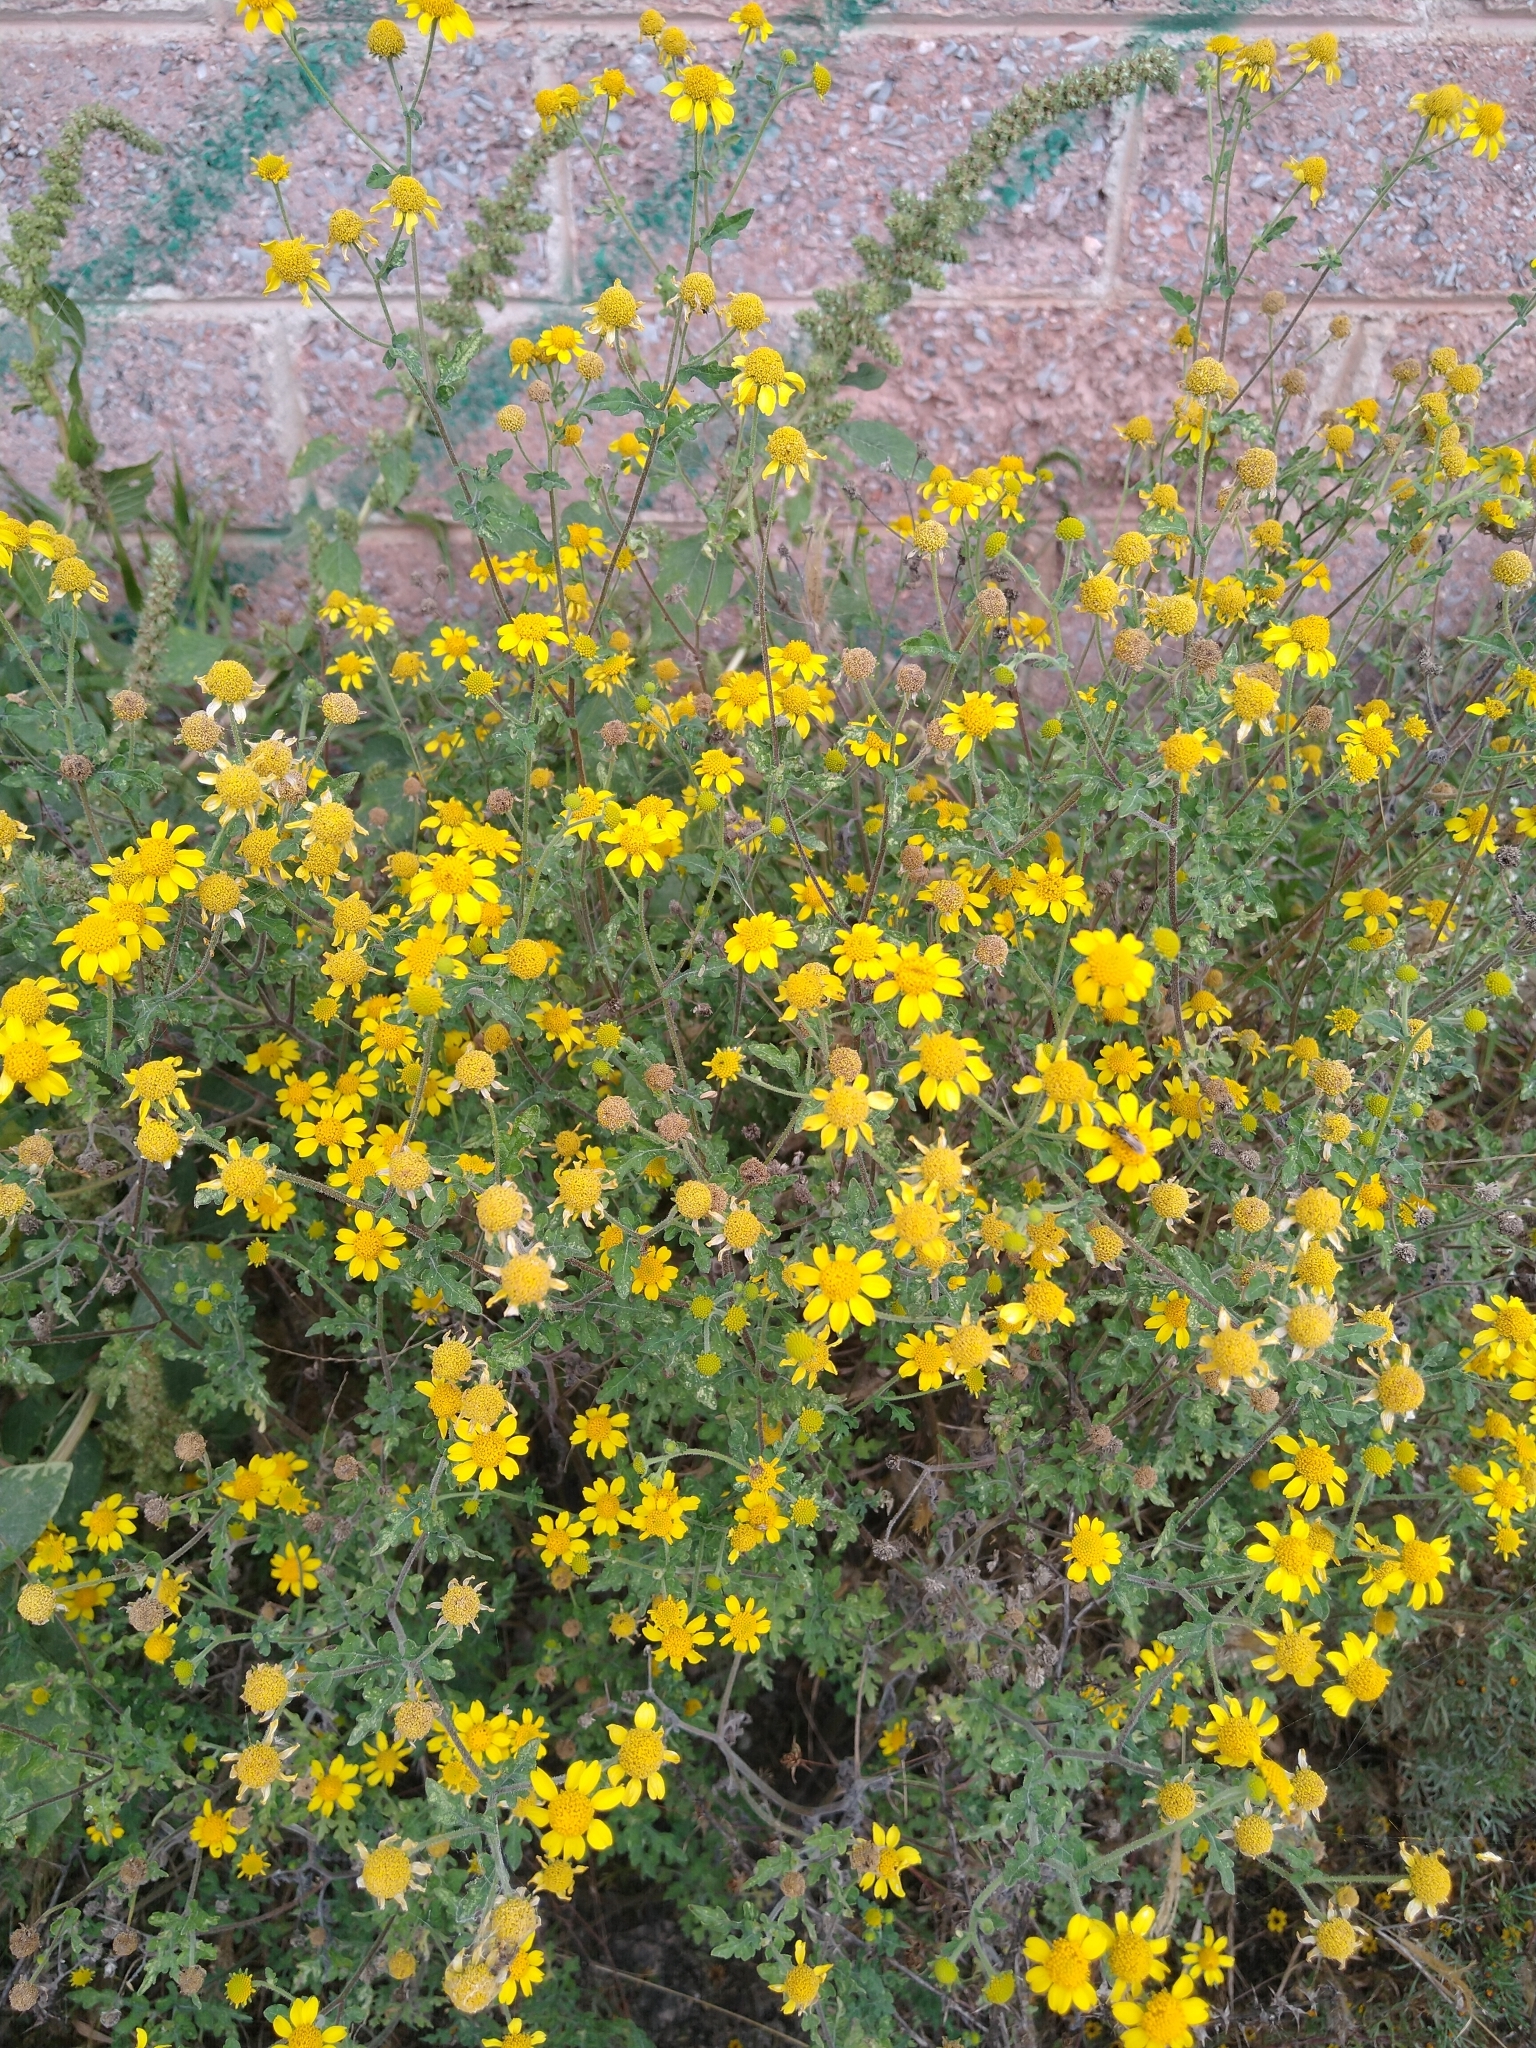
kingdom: Plantae
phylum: Tracheophyta
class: Magnoliopsida
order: Asterales
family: Asteraceae
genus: Zaluzania
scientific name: Zaluzania triloba
